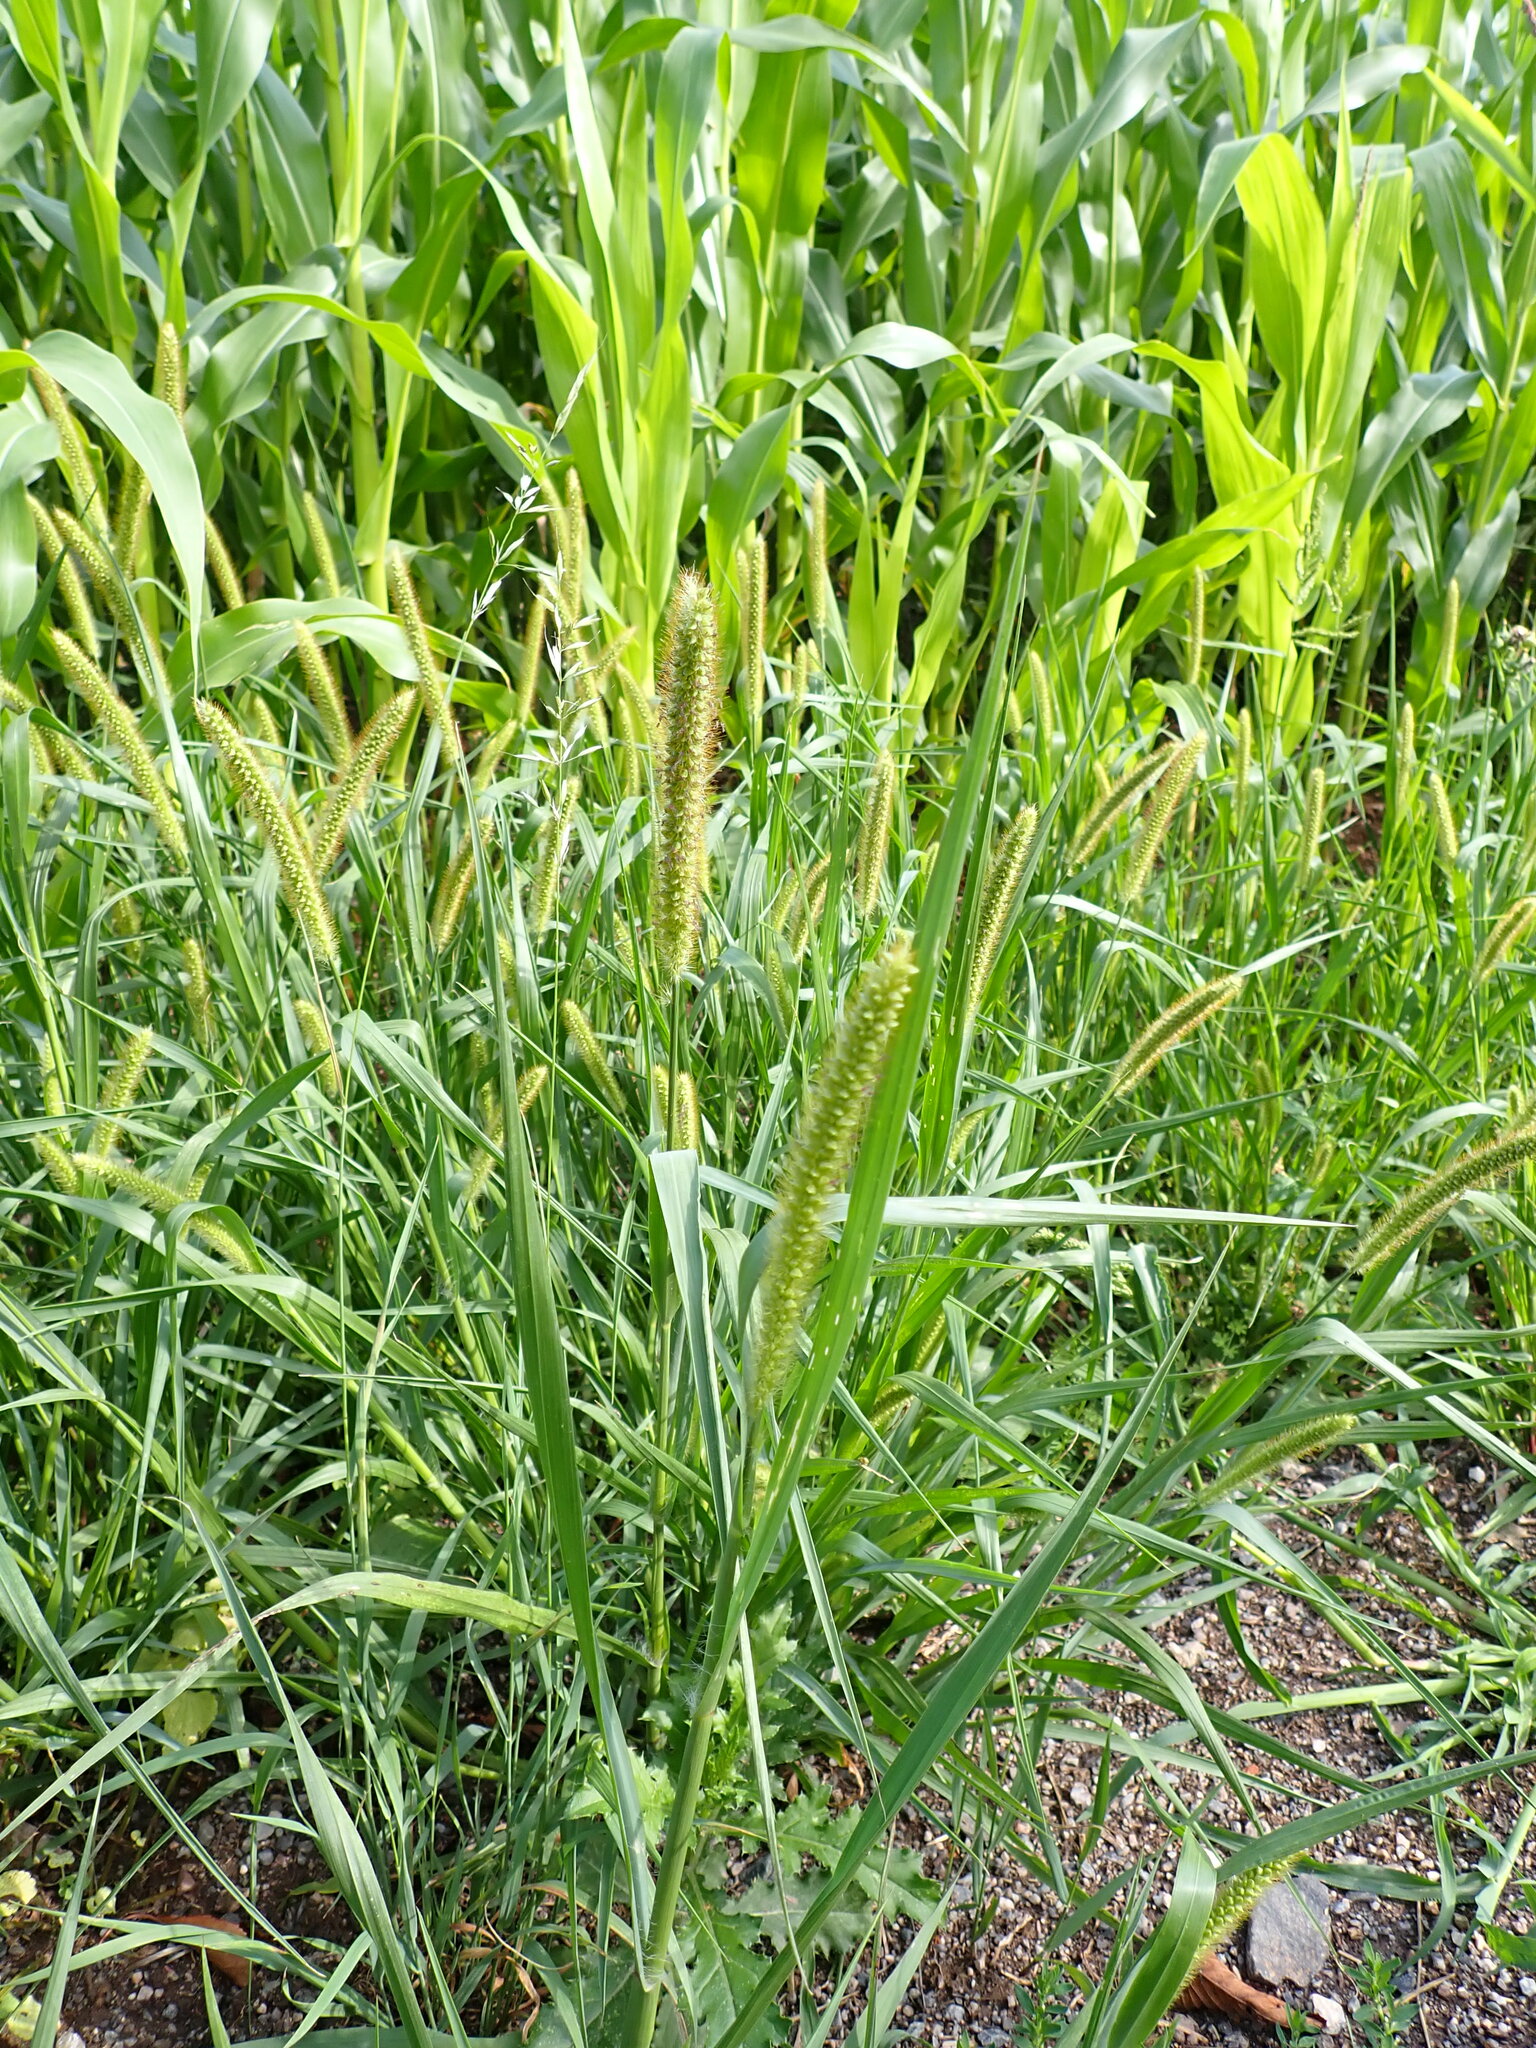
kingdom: Plantae
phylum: Tracheophyta
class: Liliopsida
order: Poales
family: Poaceae
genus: Setaria
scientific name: Setaria pumila
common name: Yellow bristle-grass
